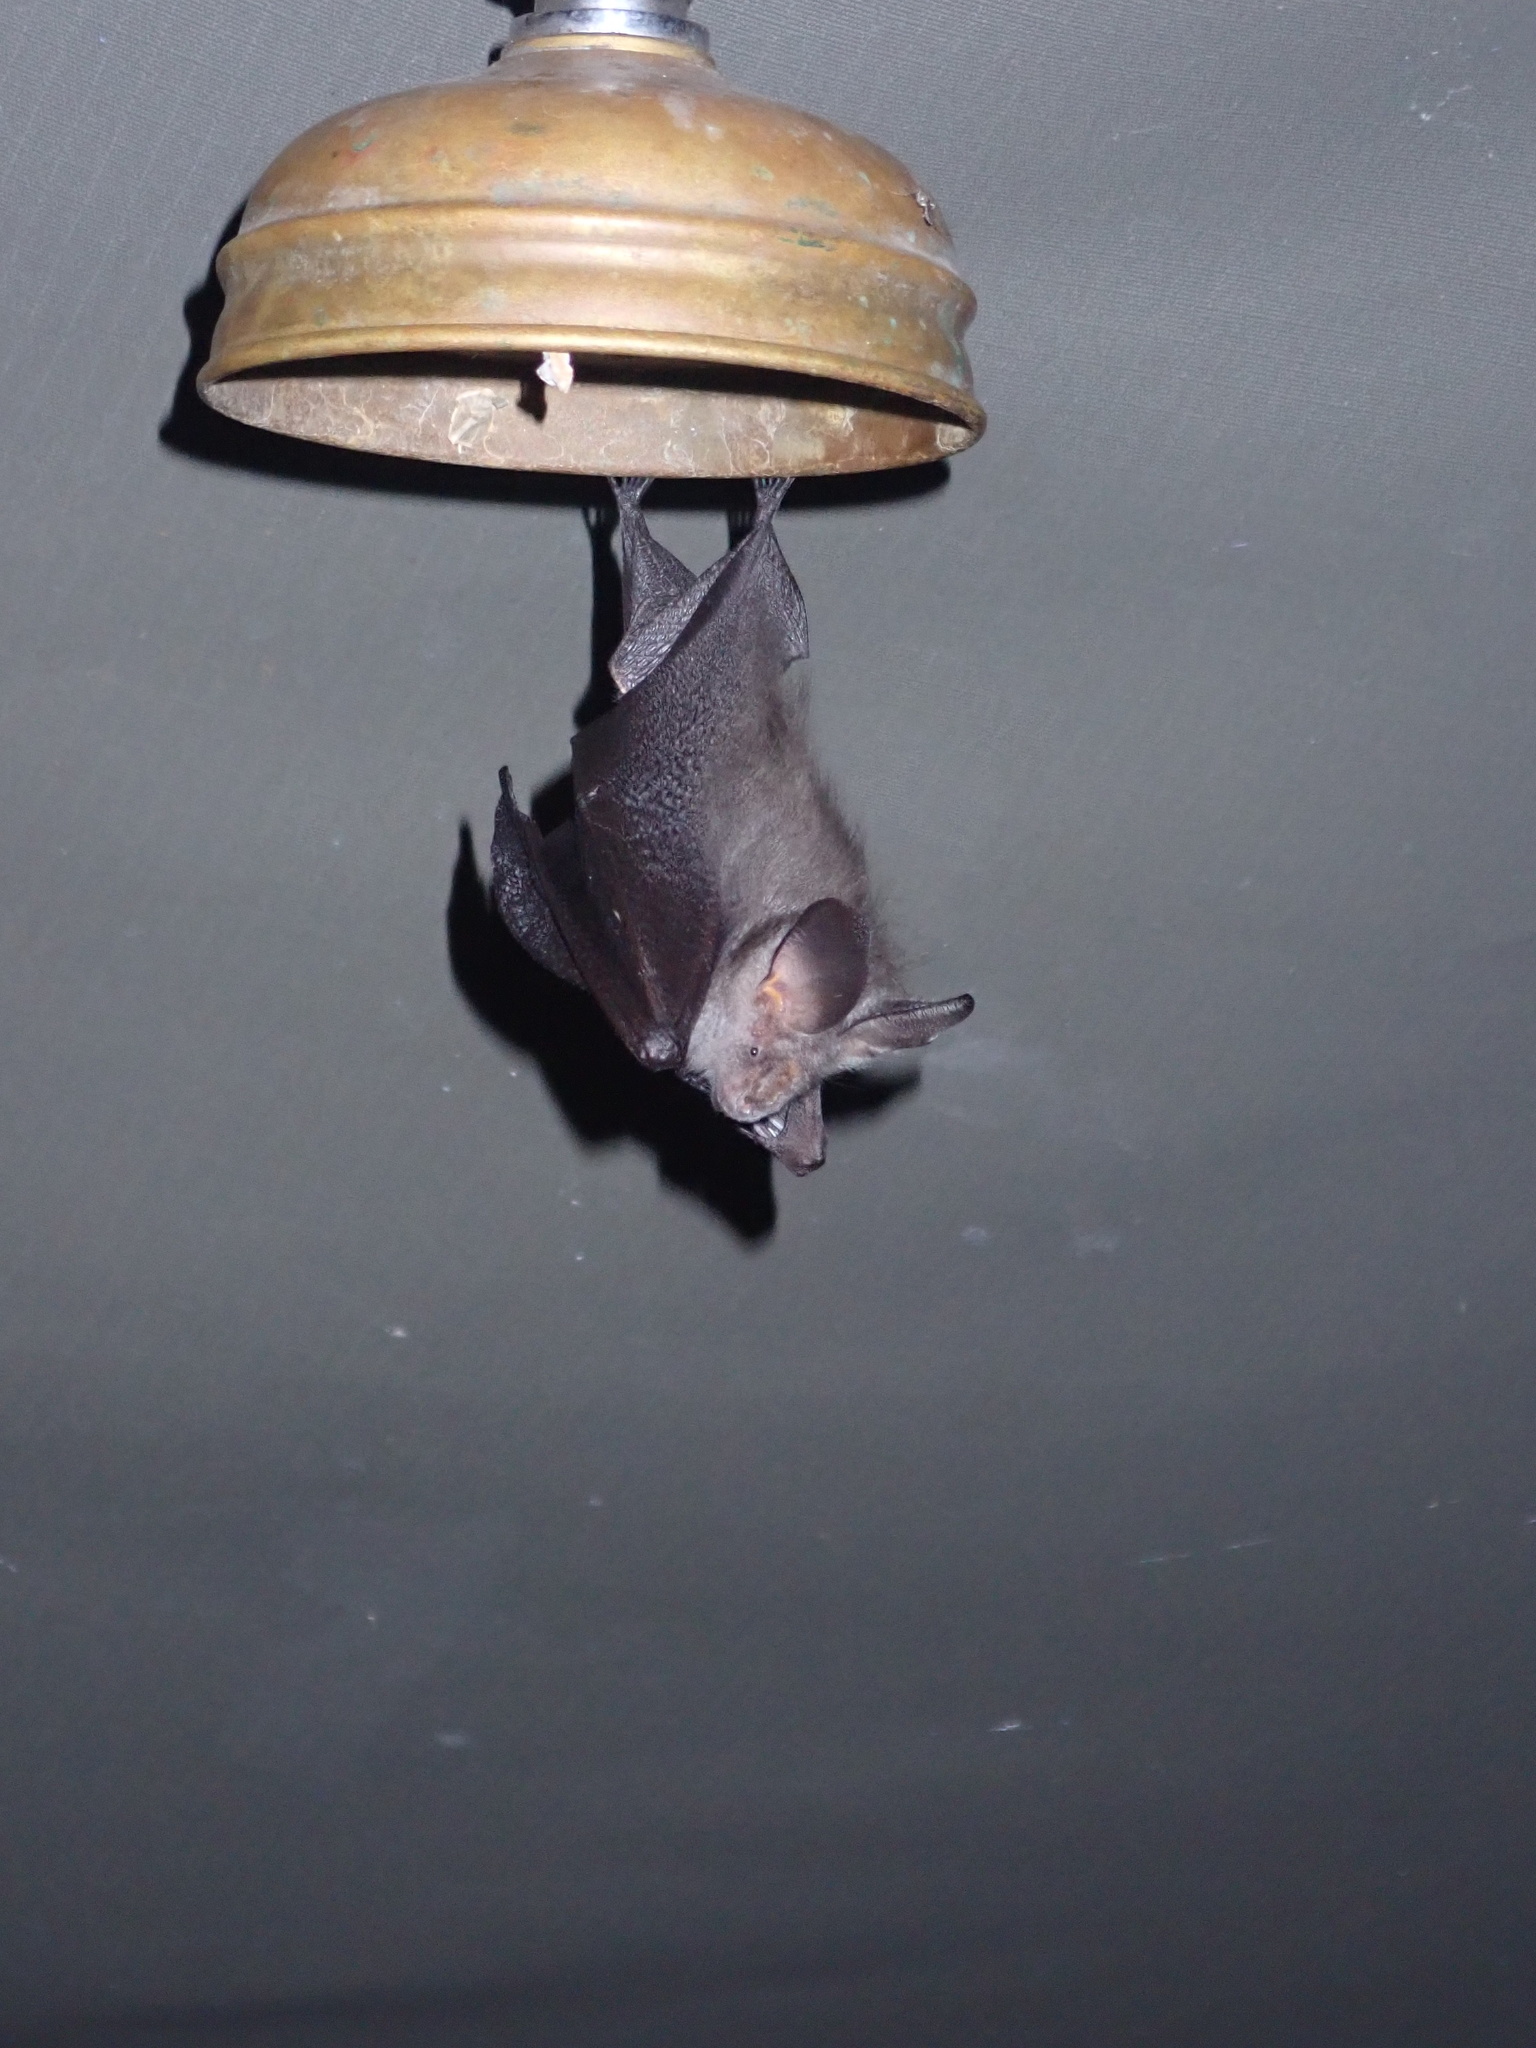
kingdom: Animalia
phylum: Chordata
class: Mammalia
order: Chiroptera
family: Nycteridae
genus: Nycteris
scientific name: Nycteris hispida
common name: Hairy slit-faced bat
